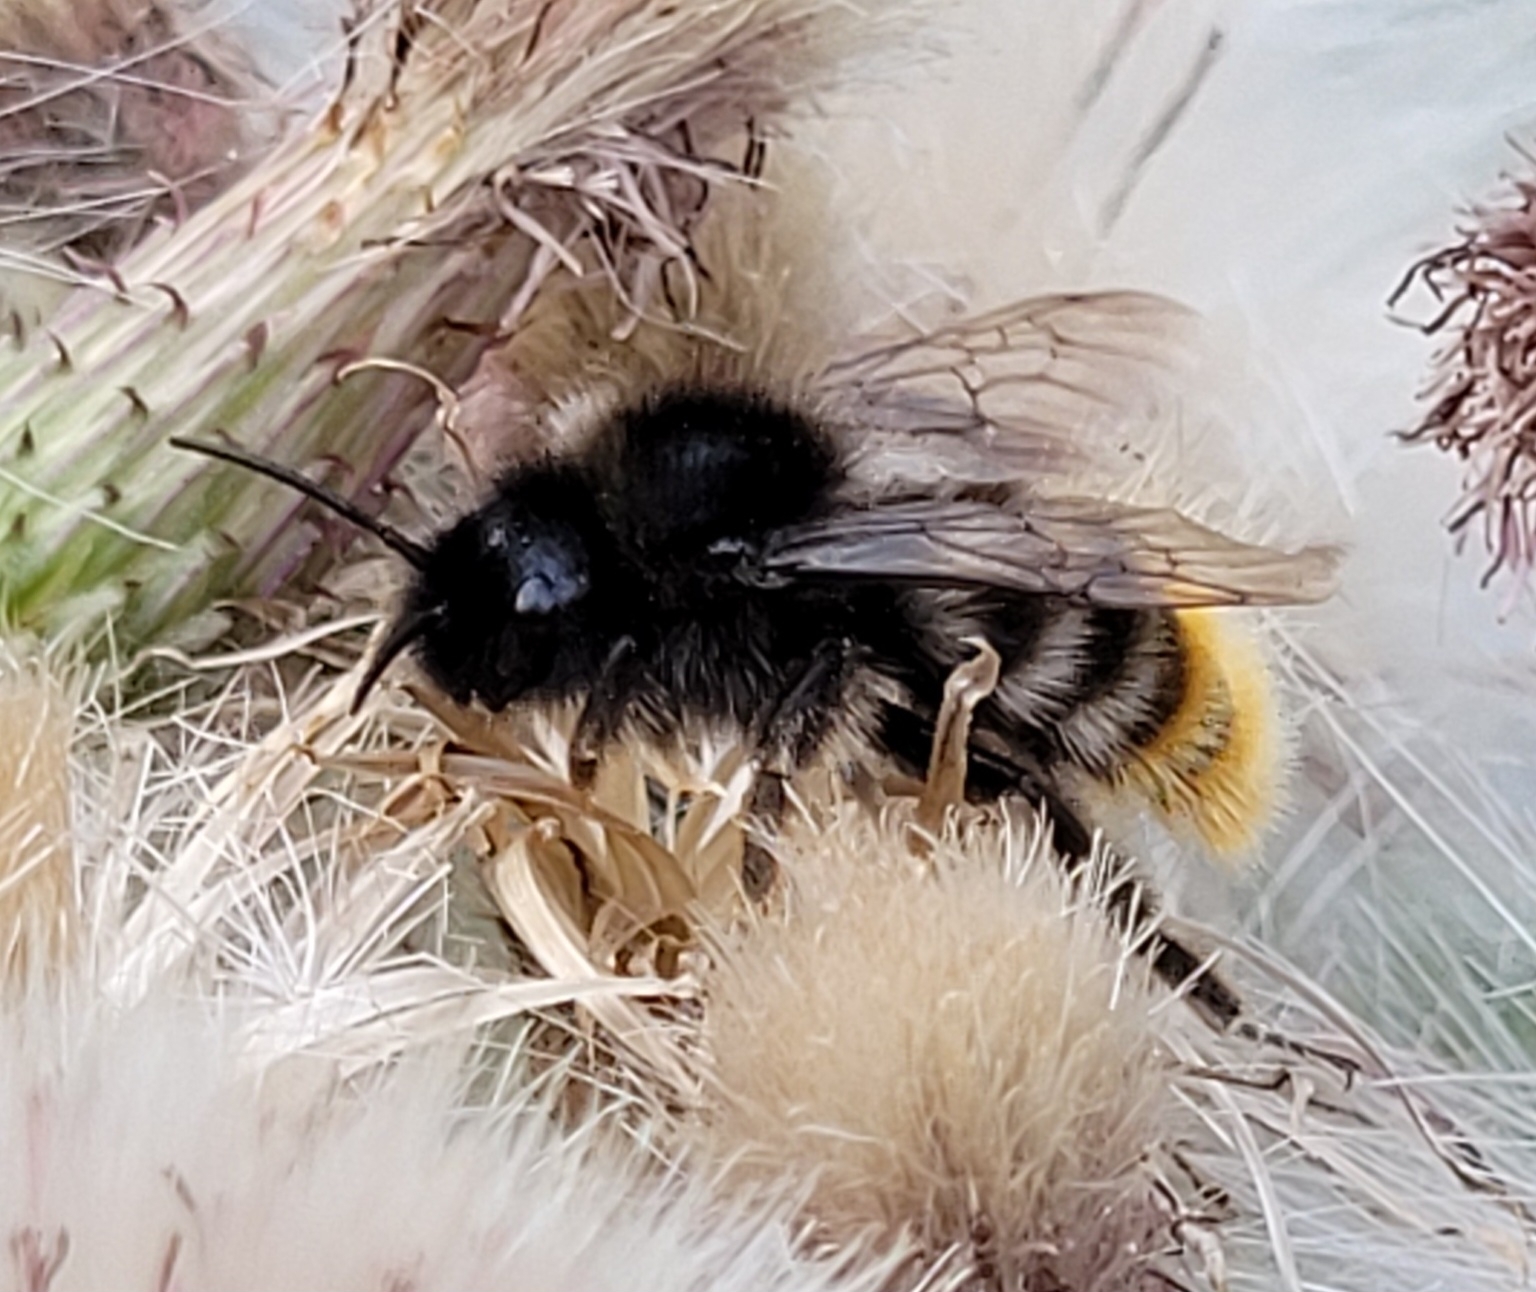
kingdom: Animalia
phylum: Arthropoda
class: Insecta
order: Hymenoptera
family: Apidae
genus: Bombus
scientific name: Bombus rupestris
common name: Hill cuckoo-bee
